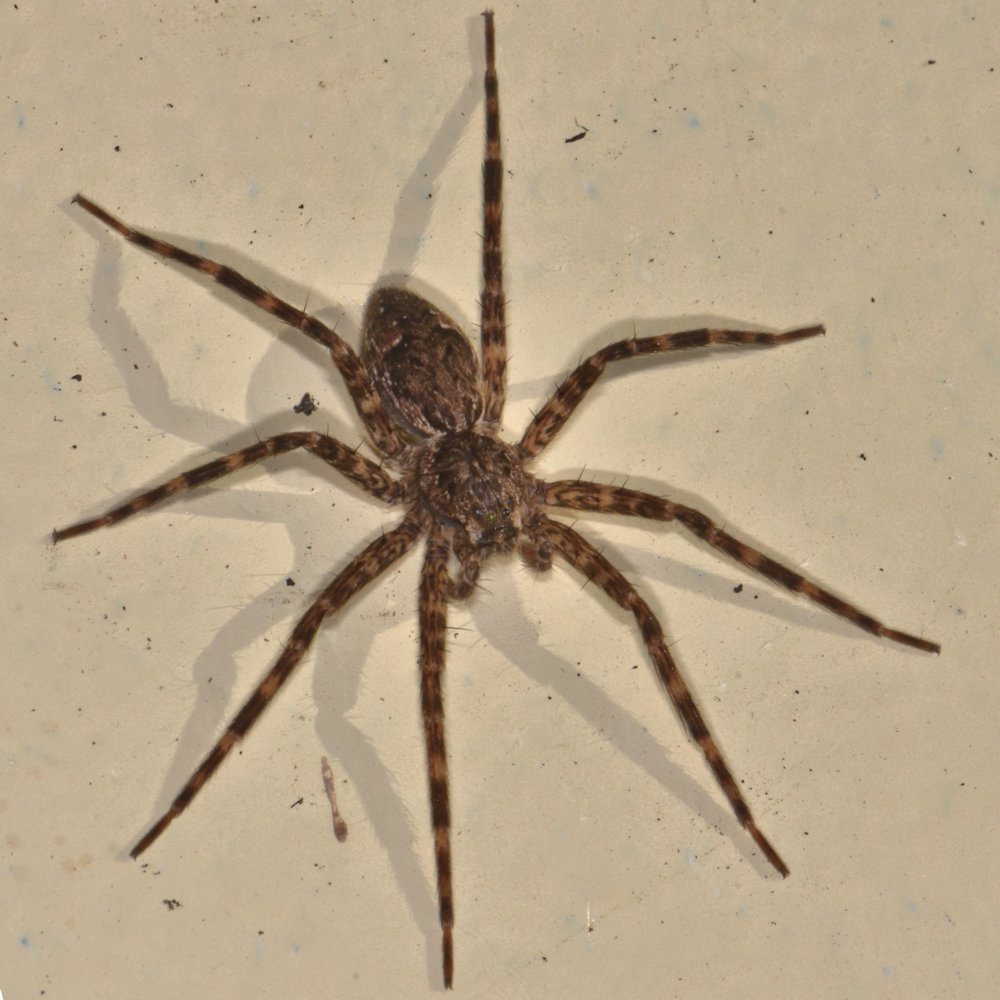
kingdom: Animalia
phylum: Arthropoda
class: Arachnida
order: Araneae
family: Pisauridae
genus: Dolomedes
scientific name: Dolomedes tenebrosus
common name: Dark fishing spider
